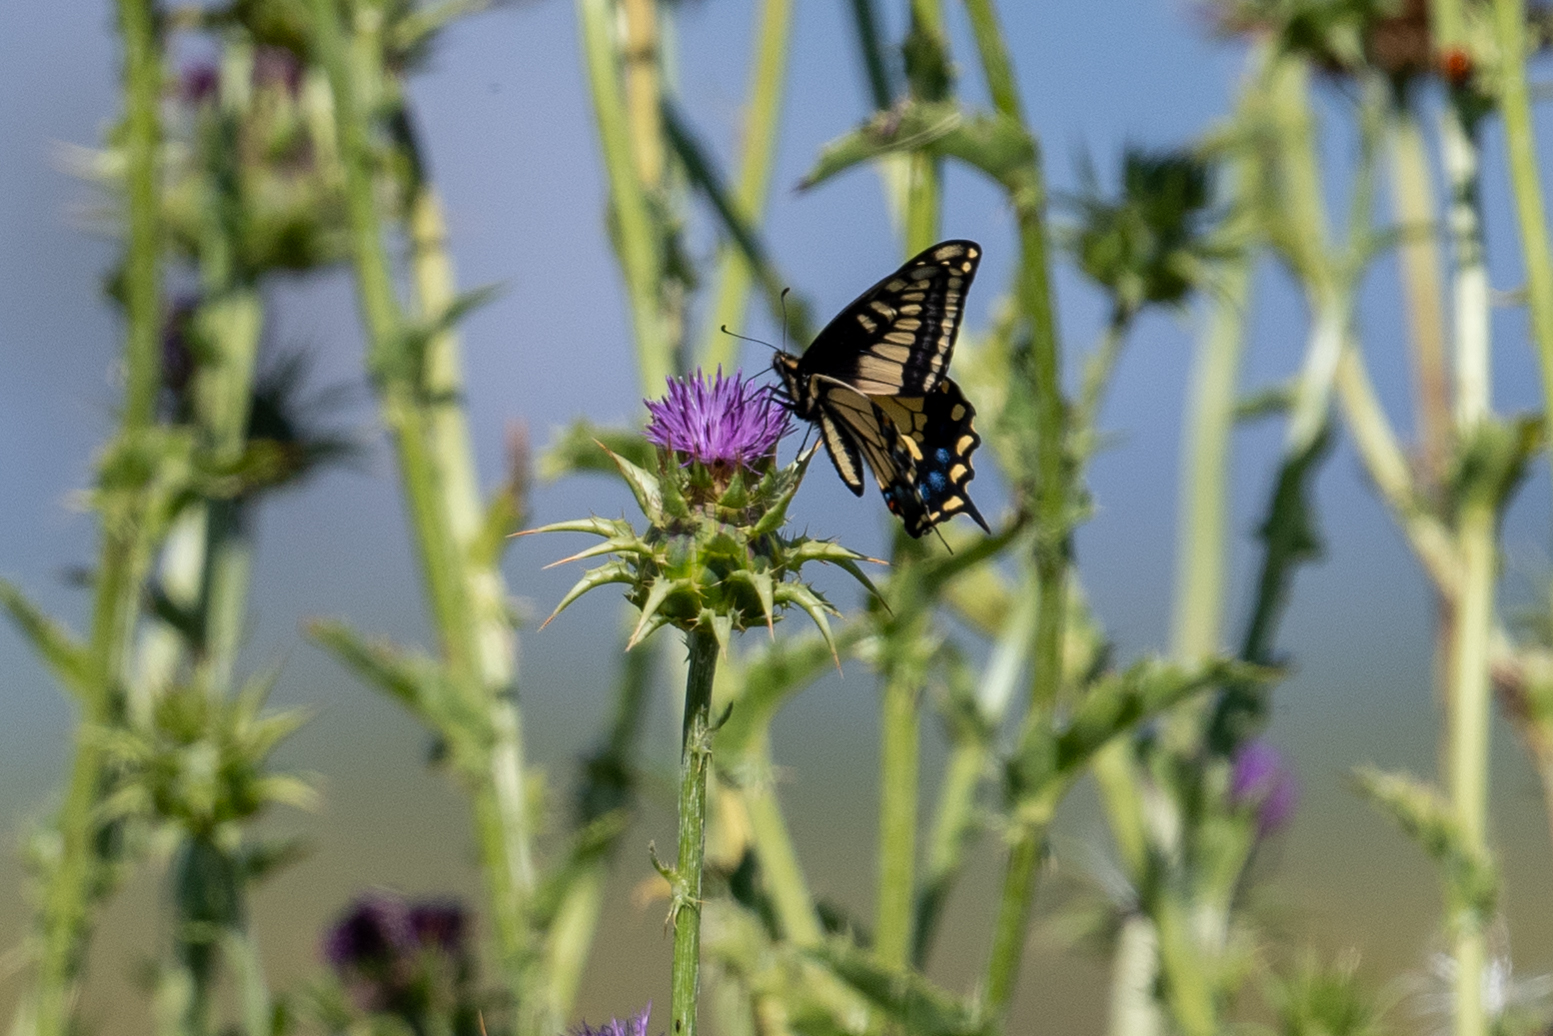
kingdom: Animalia
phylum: Arthropoda
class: Insecta
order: Lepidoptera
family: Papilionidae
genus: Papilio
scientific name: Papilio zelicaon
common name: Anise swallowtail
